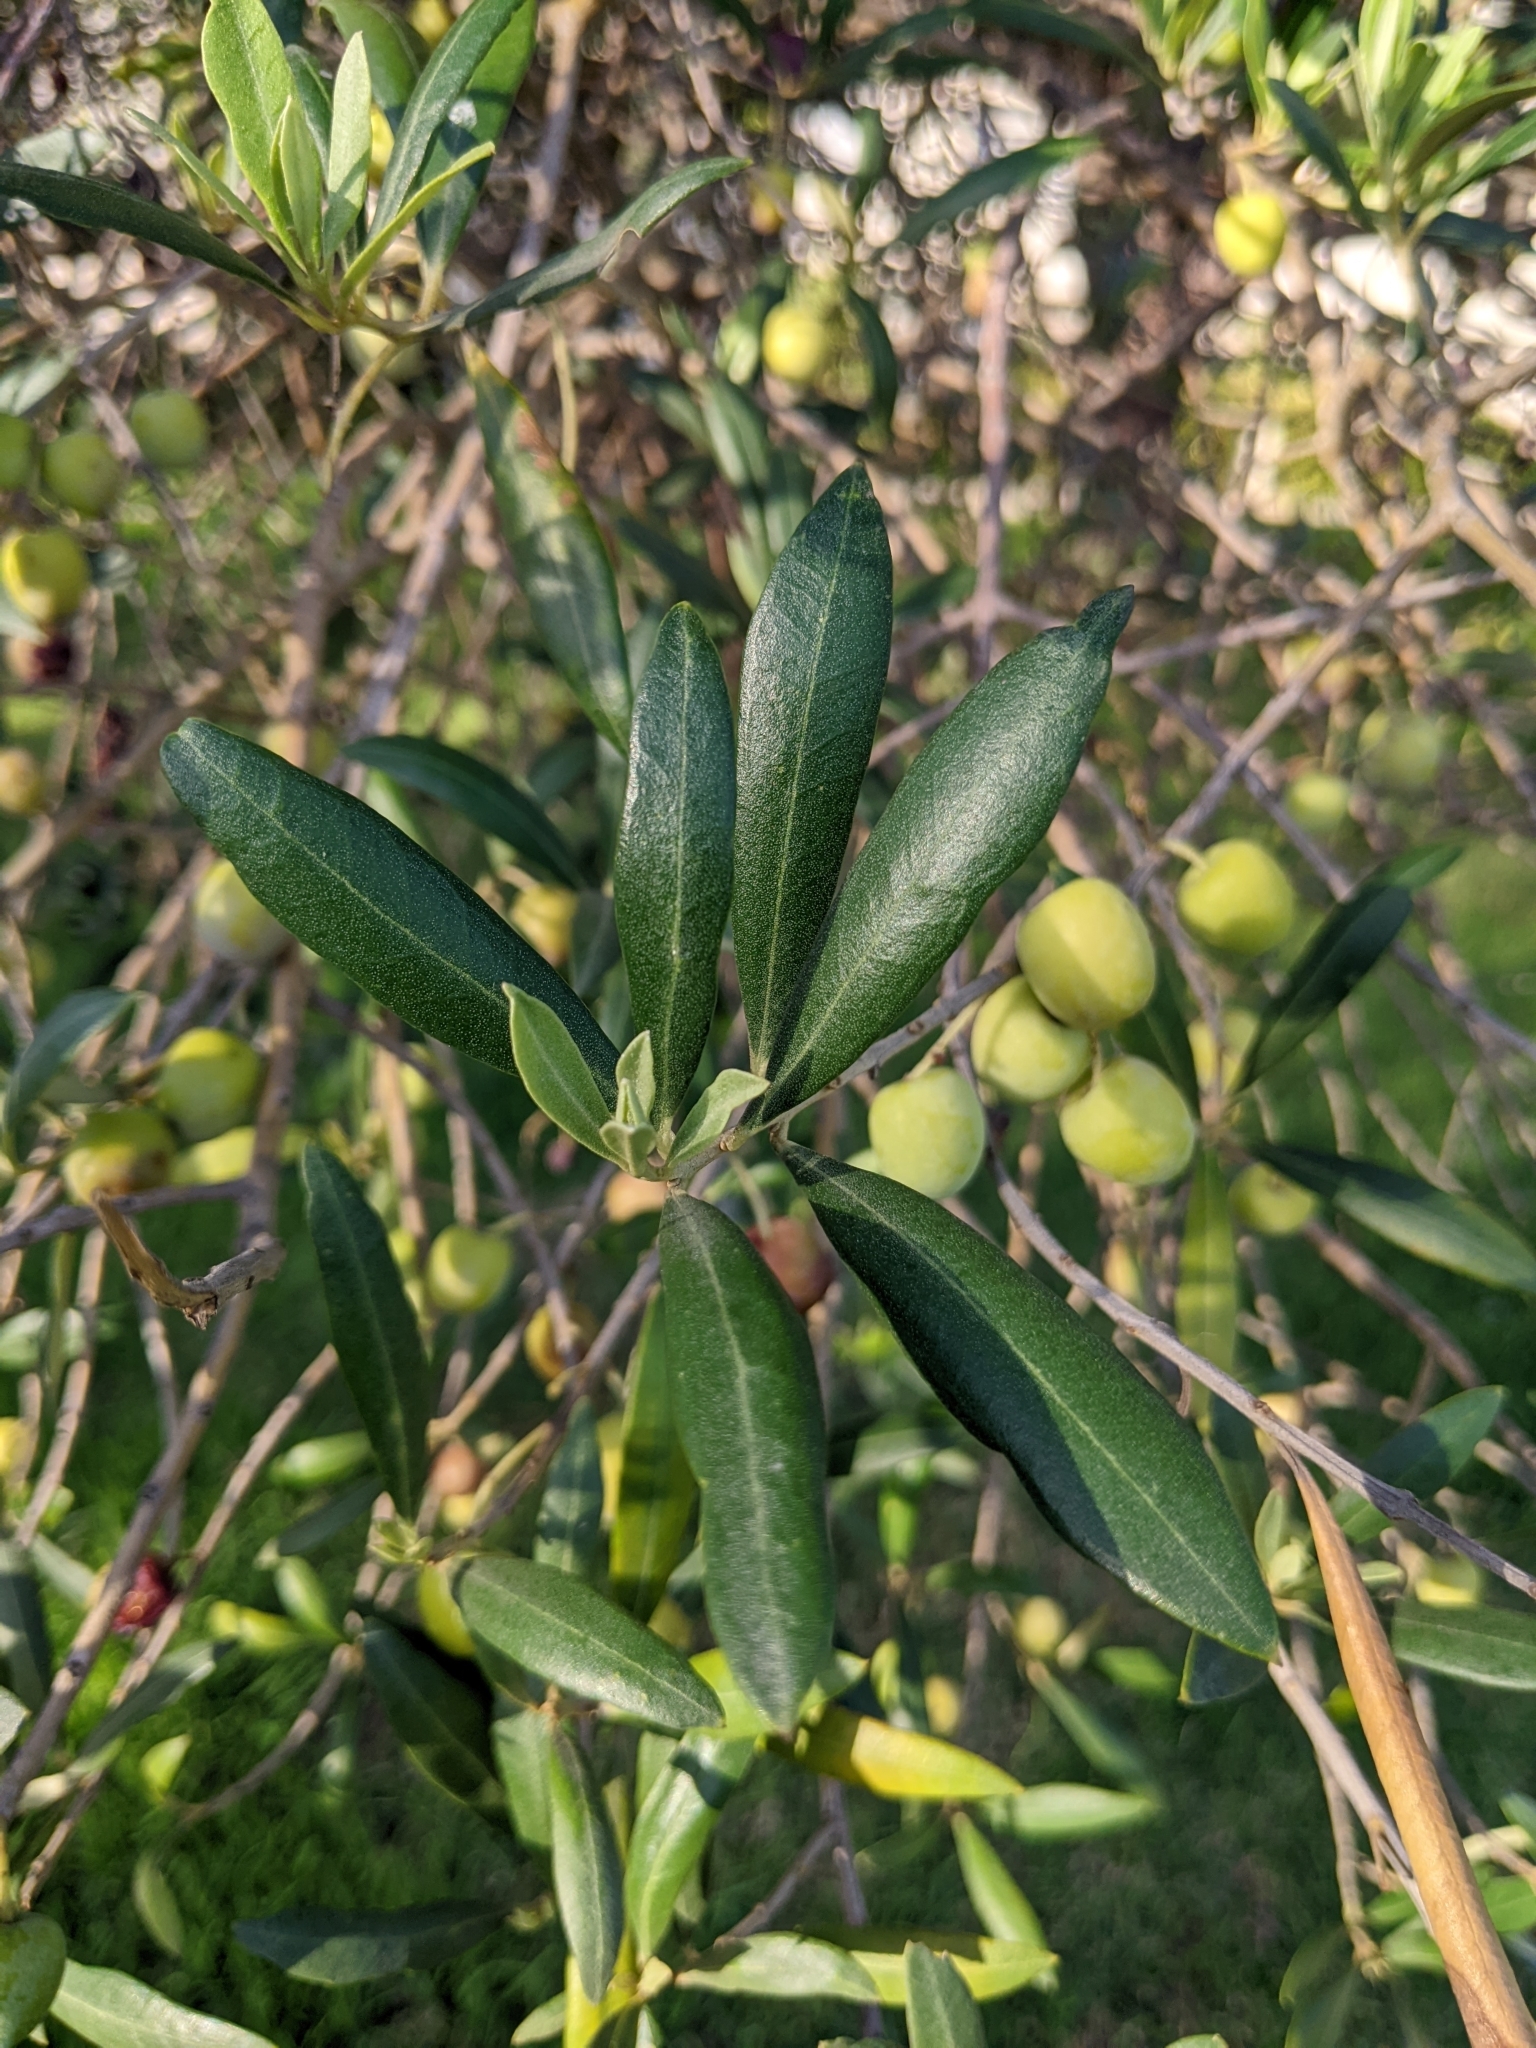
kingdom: Plantae
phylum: Tracheophyta
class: Magnoliopsida
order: Lamiales
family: Oleaceae
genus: Olea
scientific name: Olea europaea
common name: Olive
